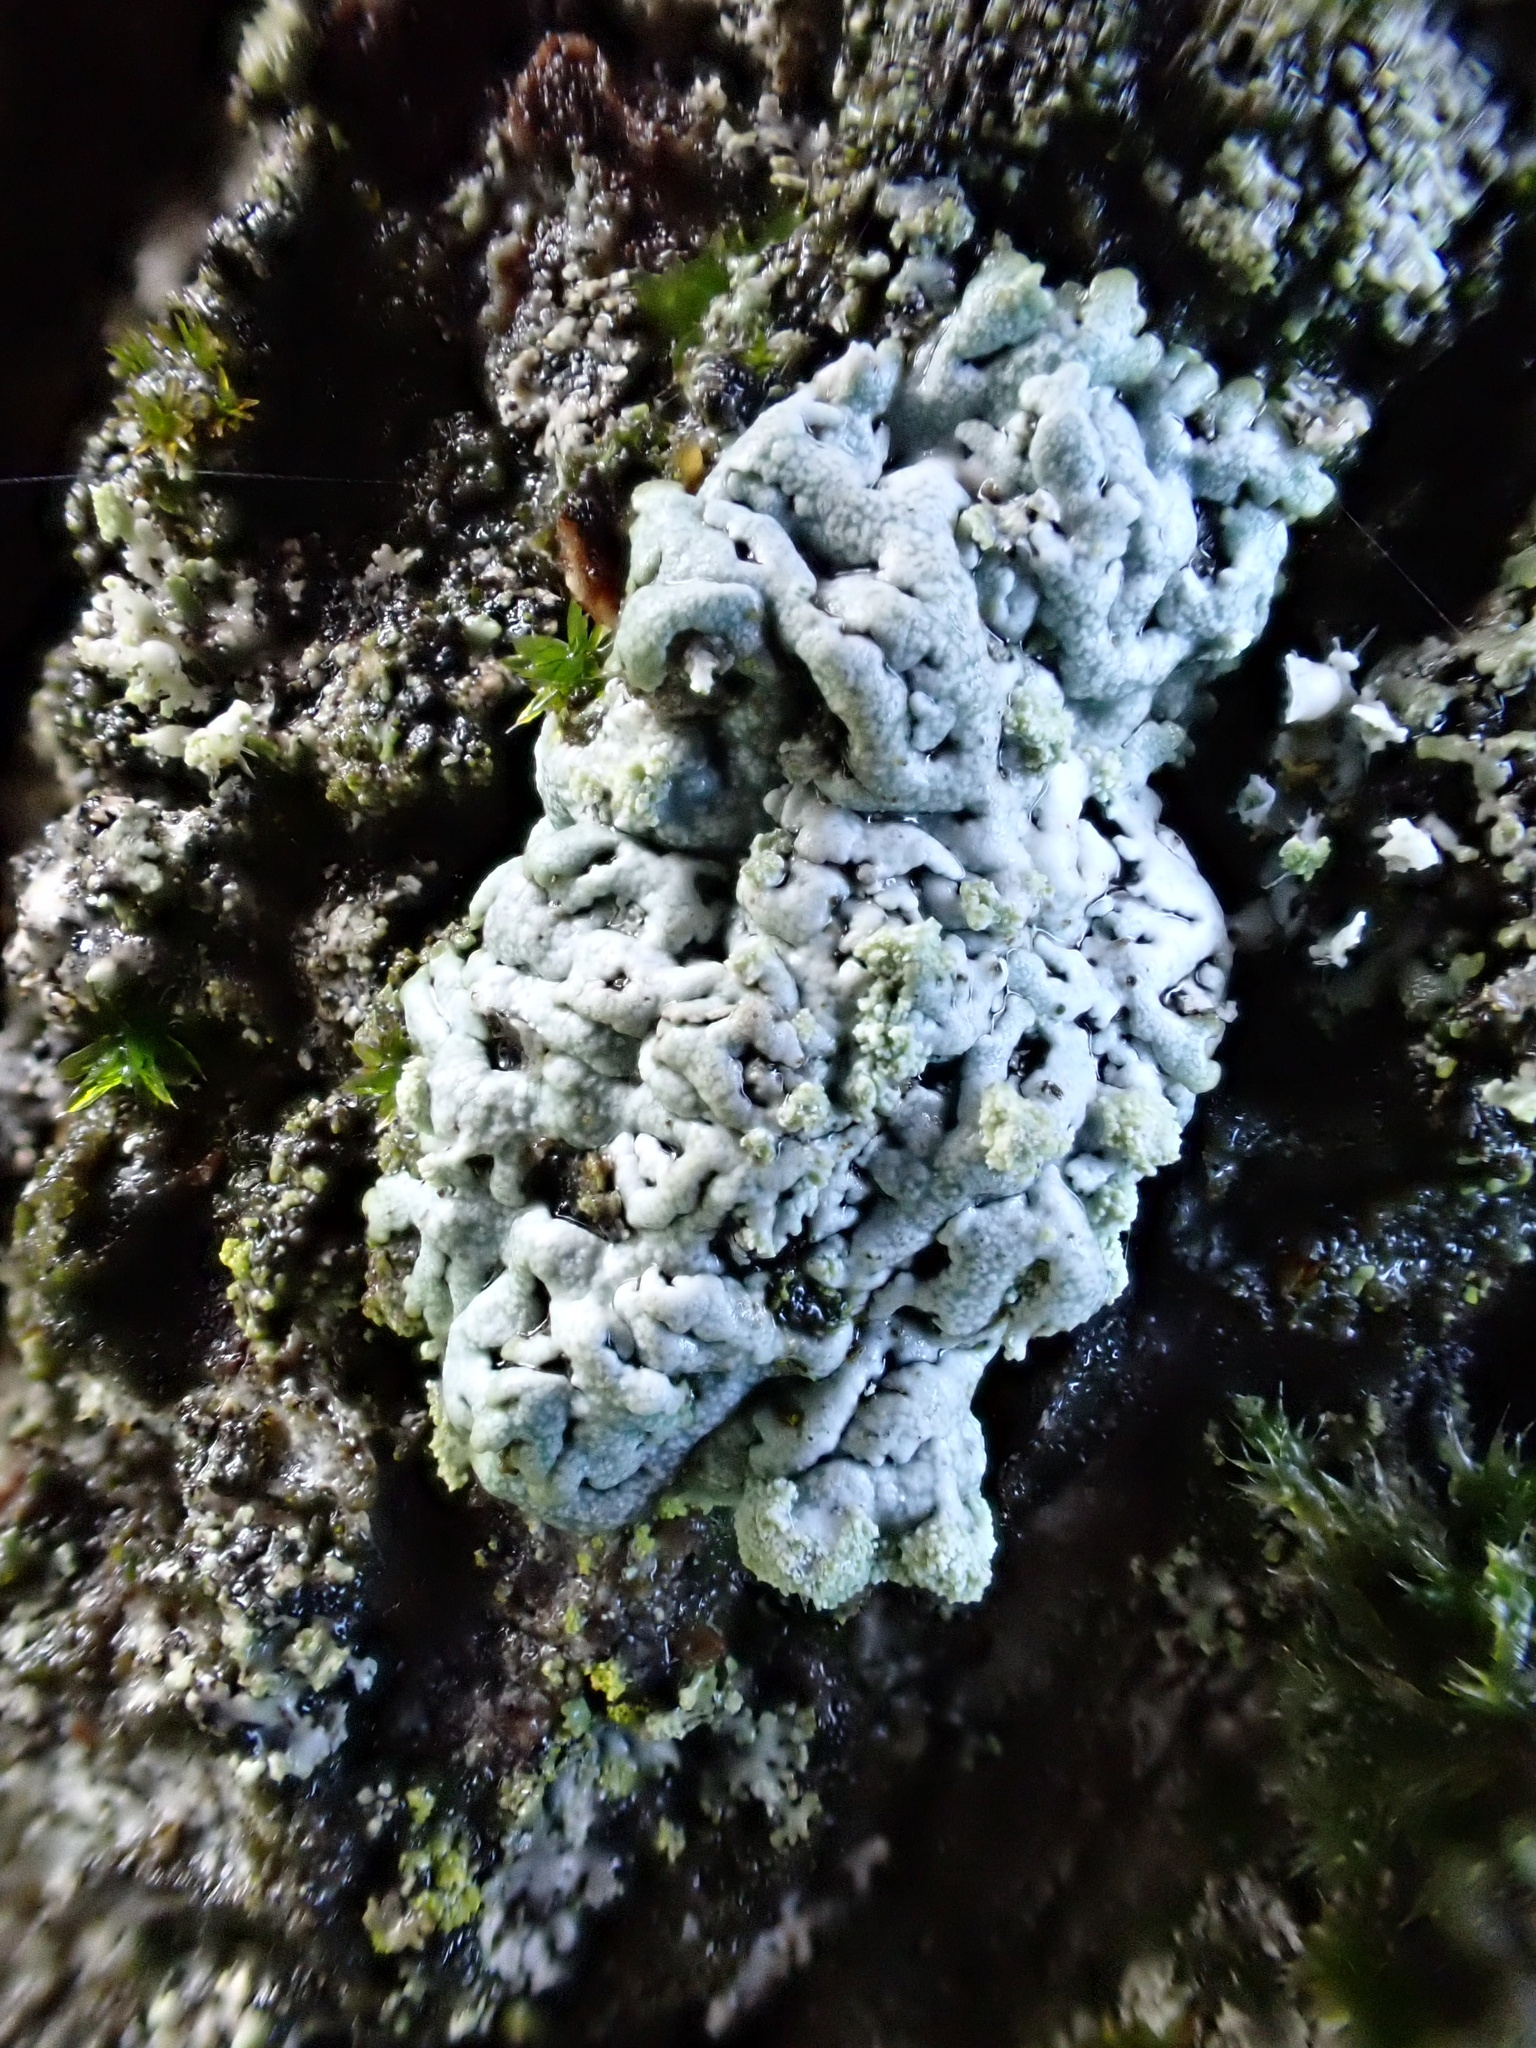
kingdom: Fungi
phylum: Ascomycota
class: Lecanoromycetes
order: Caliciales
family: Physciaceae
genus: Physcia
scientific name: Physcia caesia
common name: Blue-gray rosette lichen
